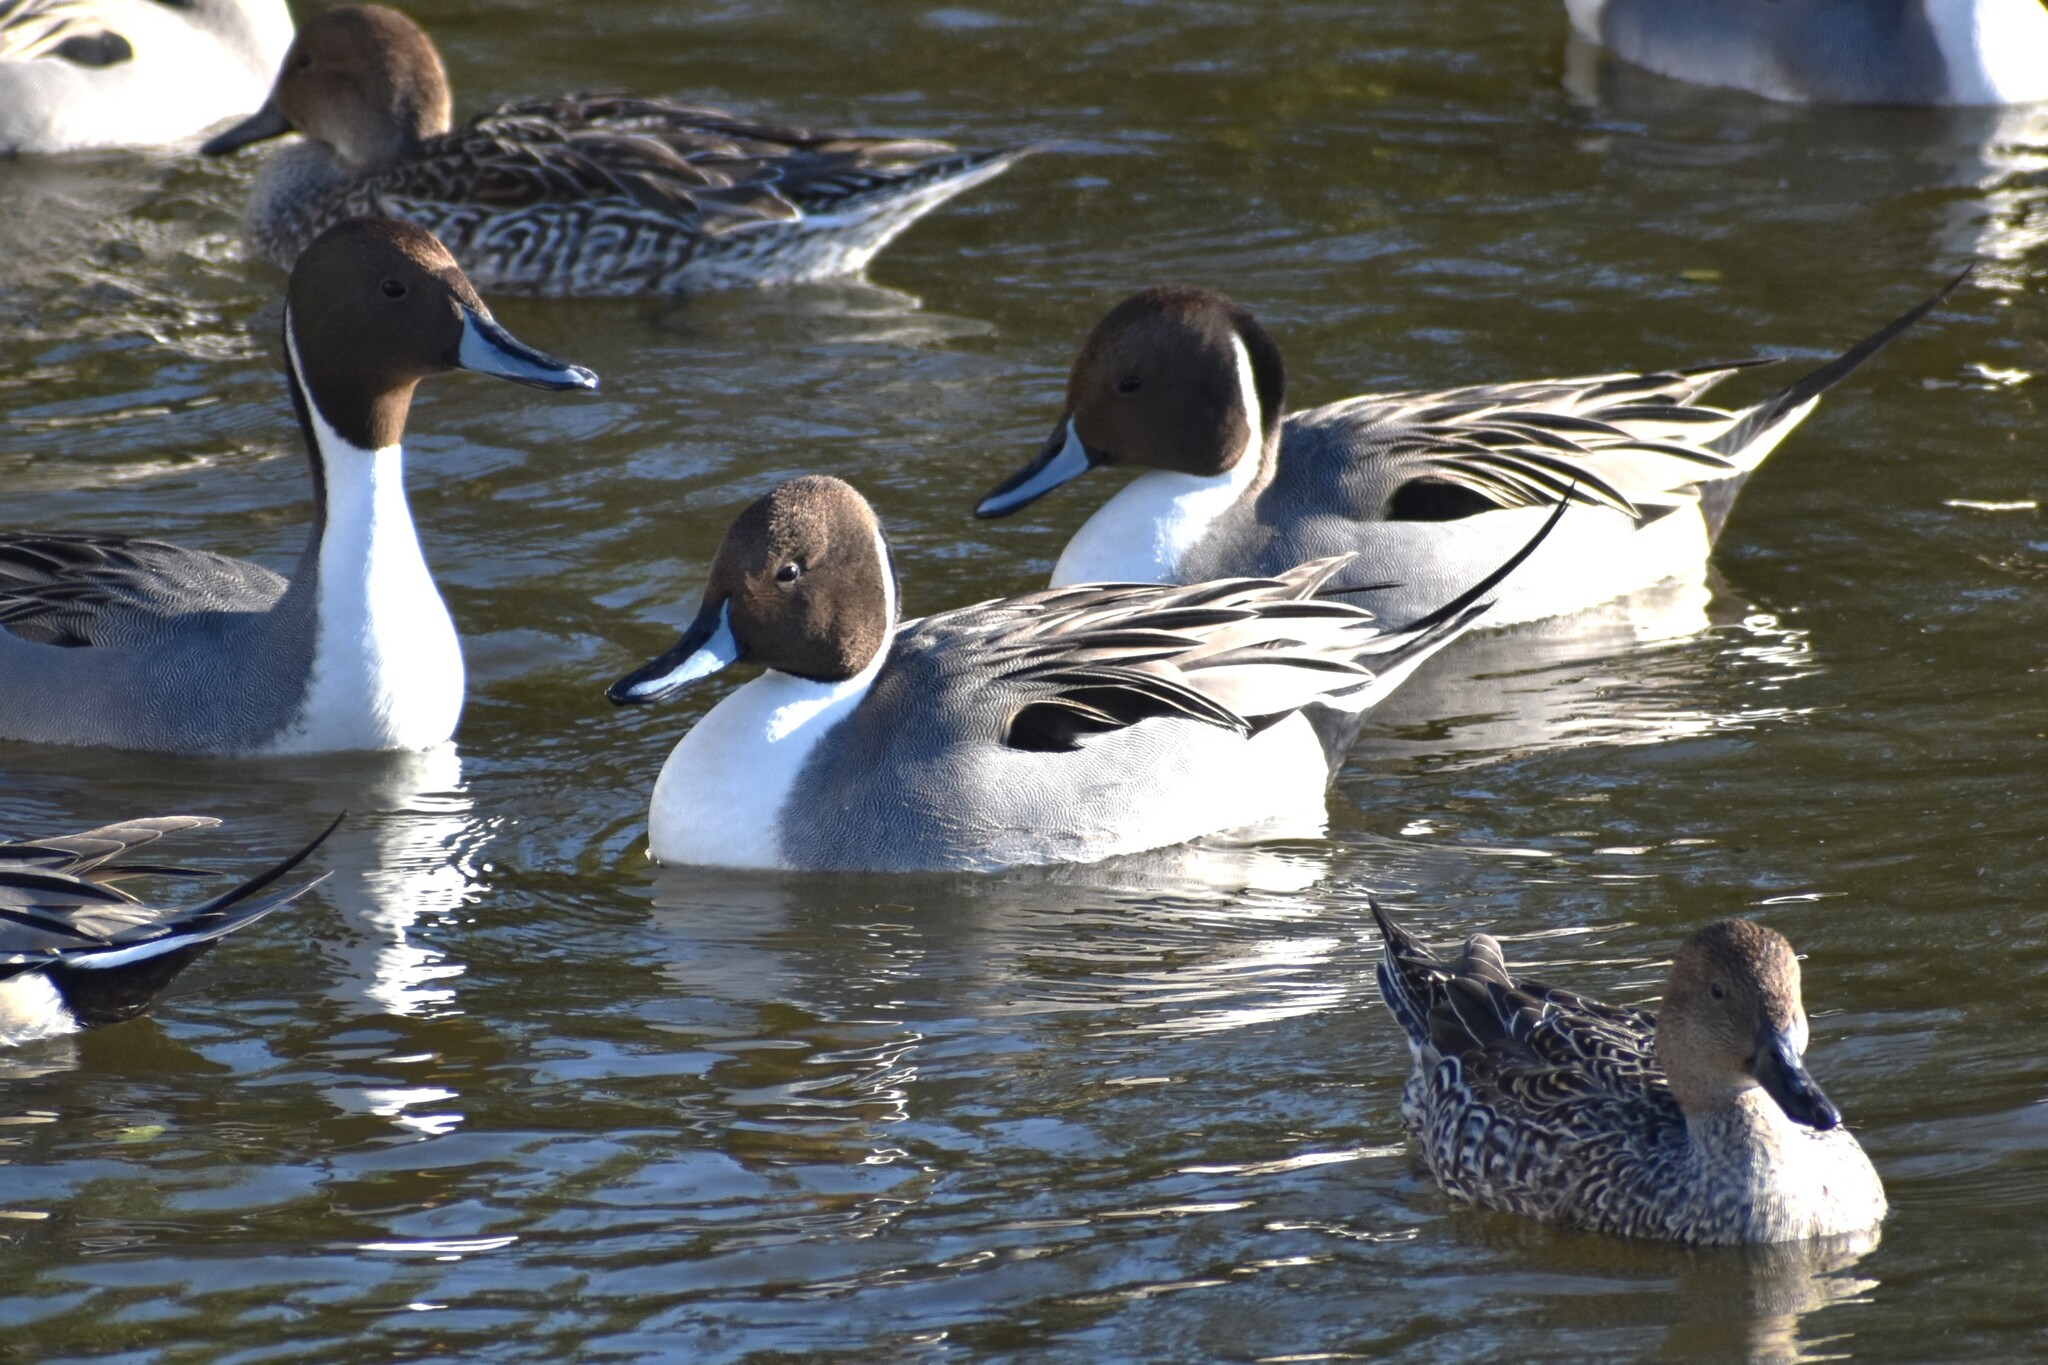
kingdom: Animalia
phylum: Chordata
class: Aves
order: Anseriformes
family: Anatidae
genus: Anas
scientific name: Anas acuta
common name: Northern pintail
